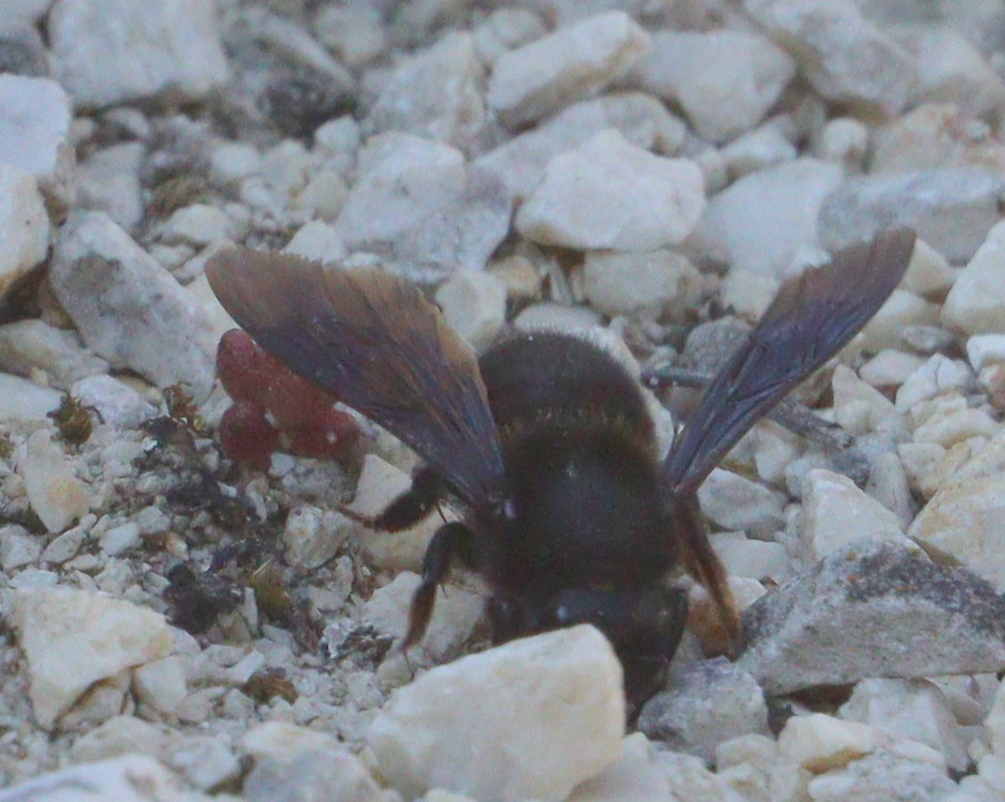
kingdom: Animalia
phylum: Arthropoda
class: Insecta
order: Hymenoptera
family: Megachilidae
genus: Megachile
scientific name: Megachile parietina
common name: Black mud bee
